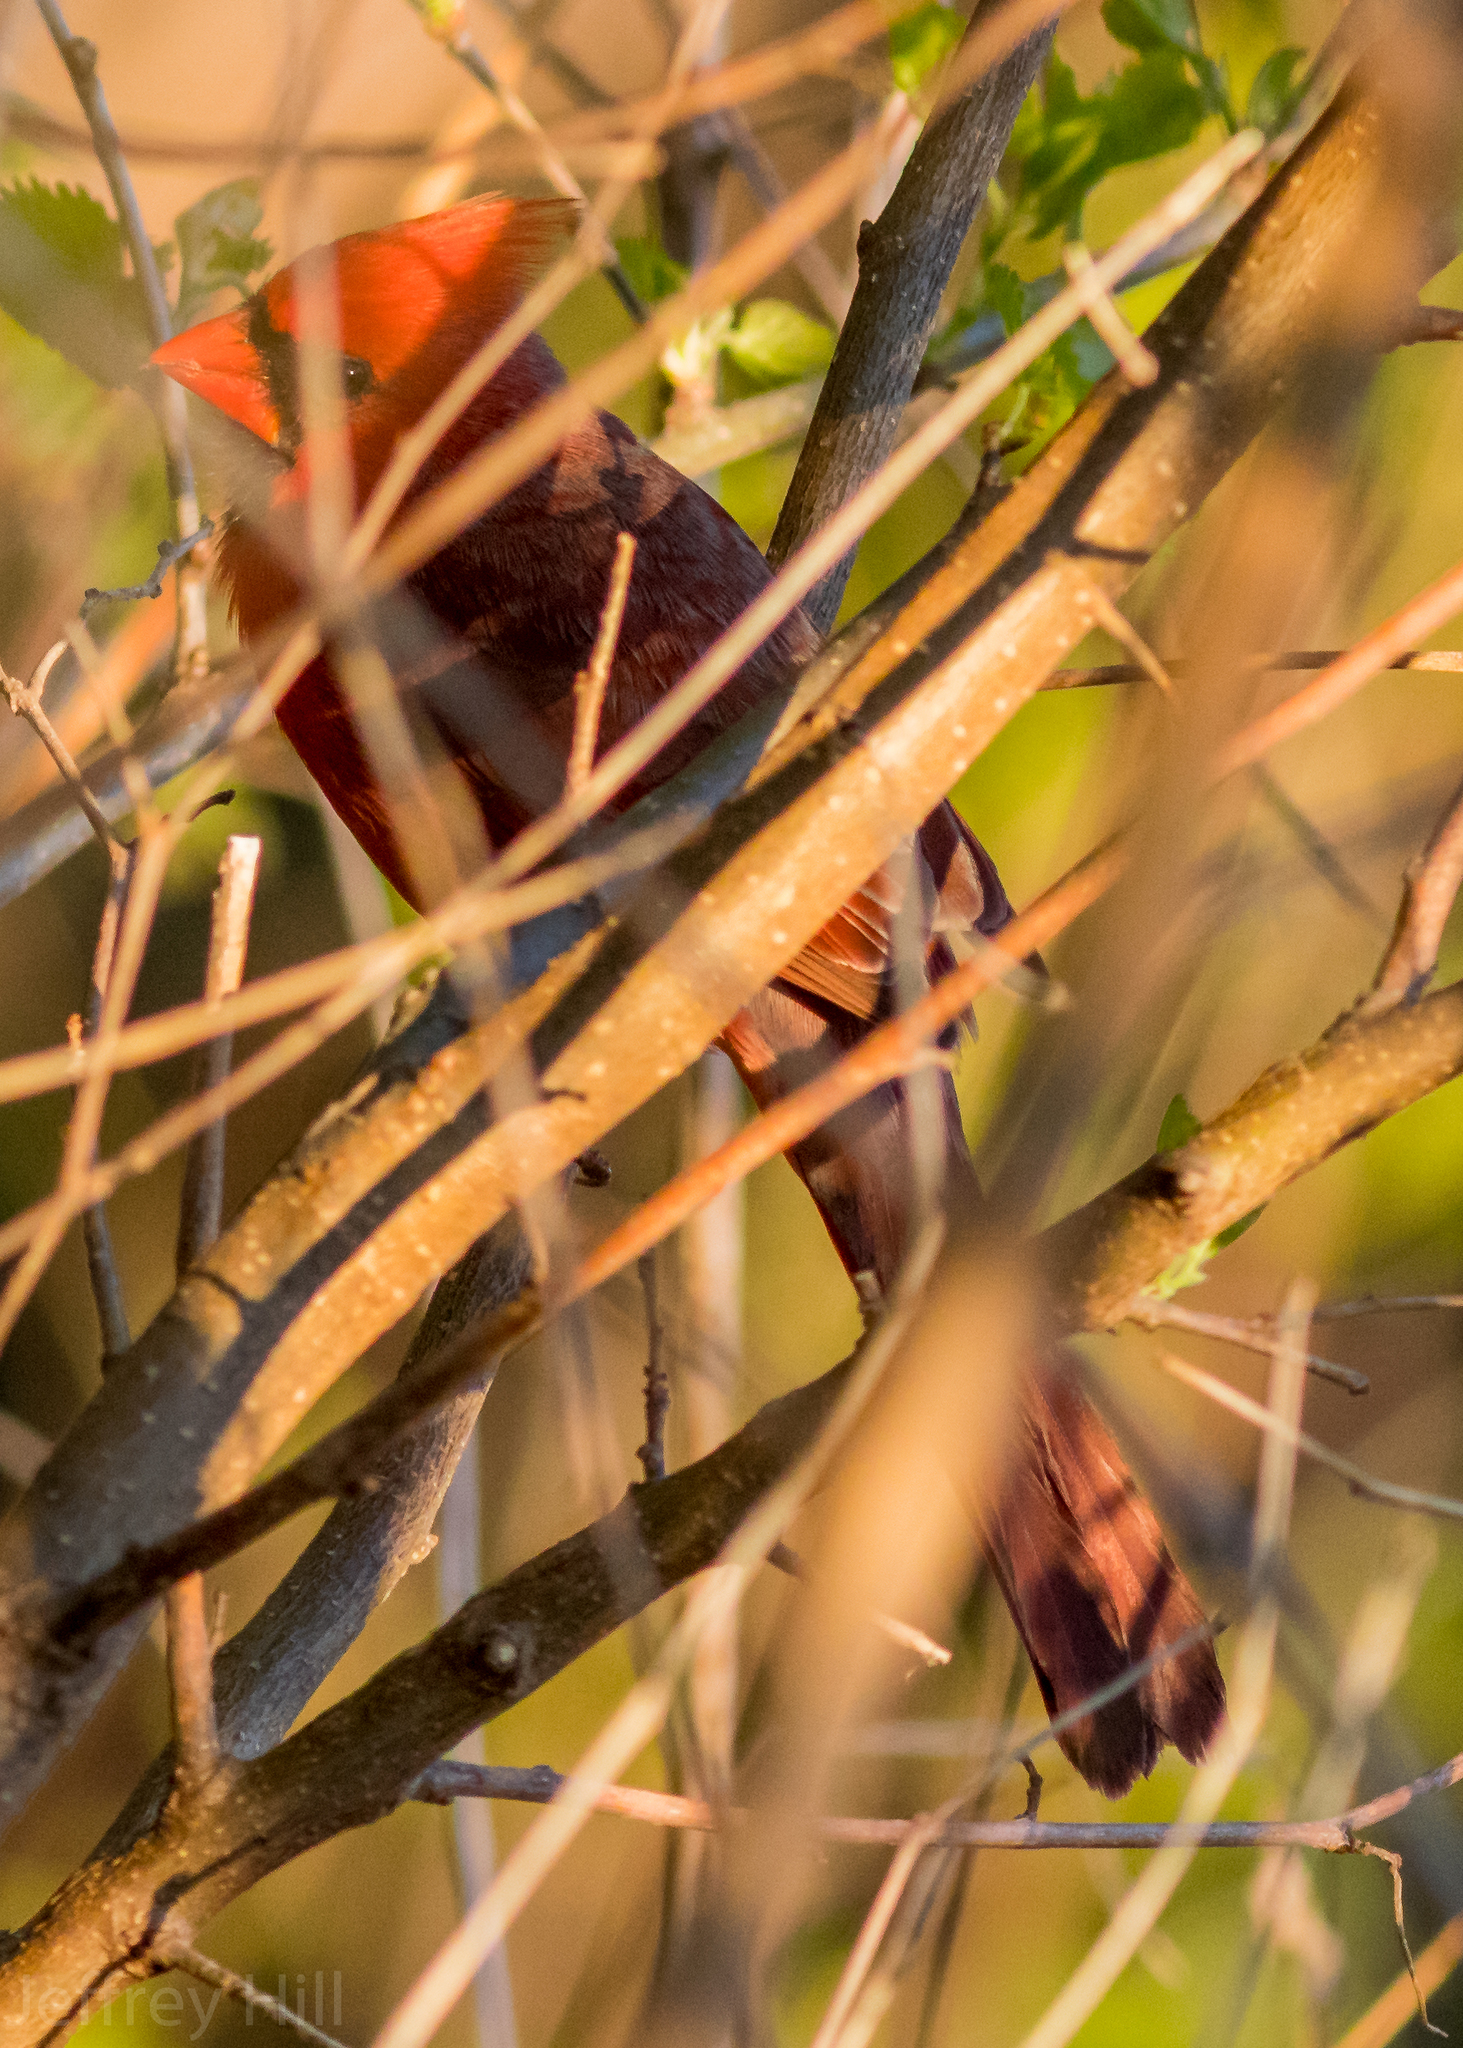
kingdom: Animalia
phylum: Chordata
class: Aves
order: Passeriformes
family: Cardinalidae
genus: Cardinalis
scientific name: Cardinalis cardinalis
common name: Northern cardinal
